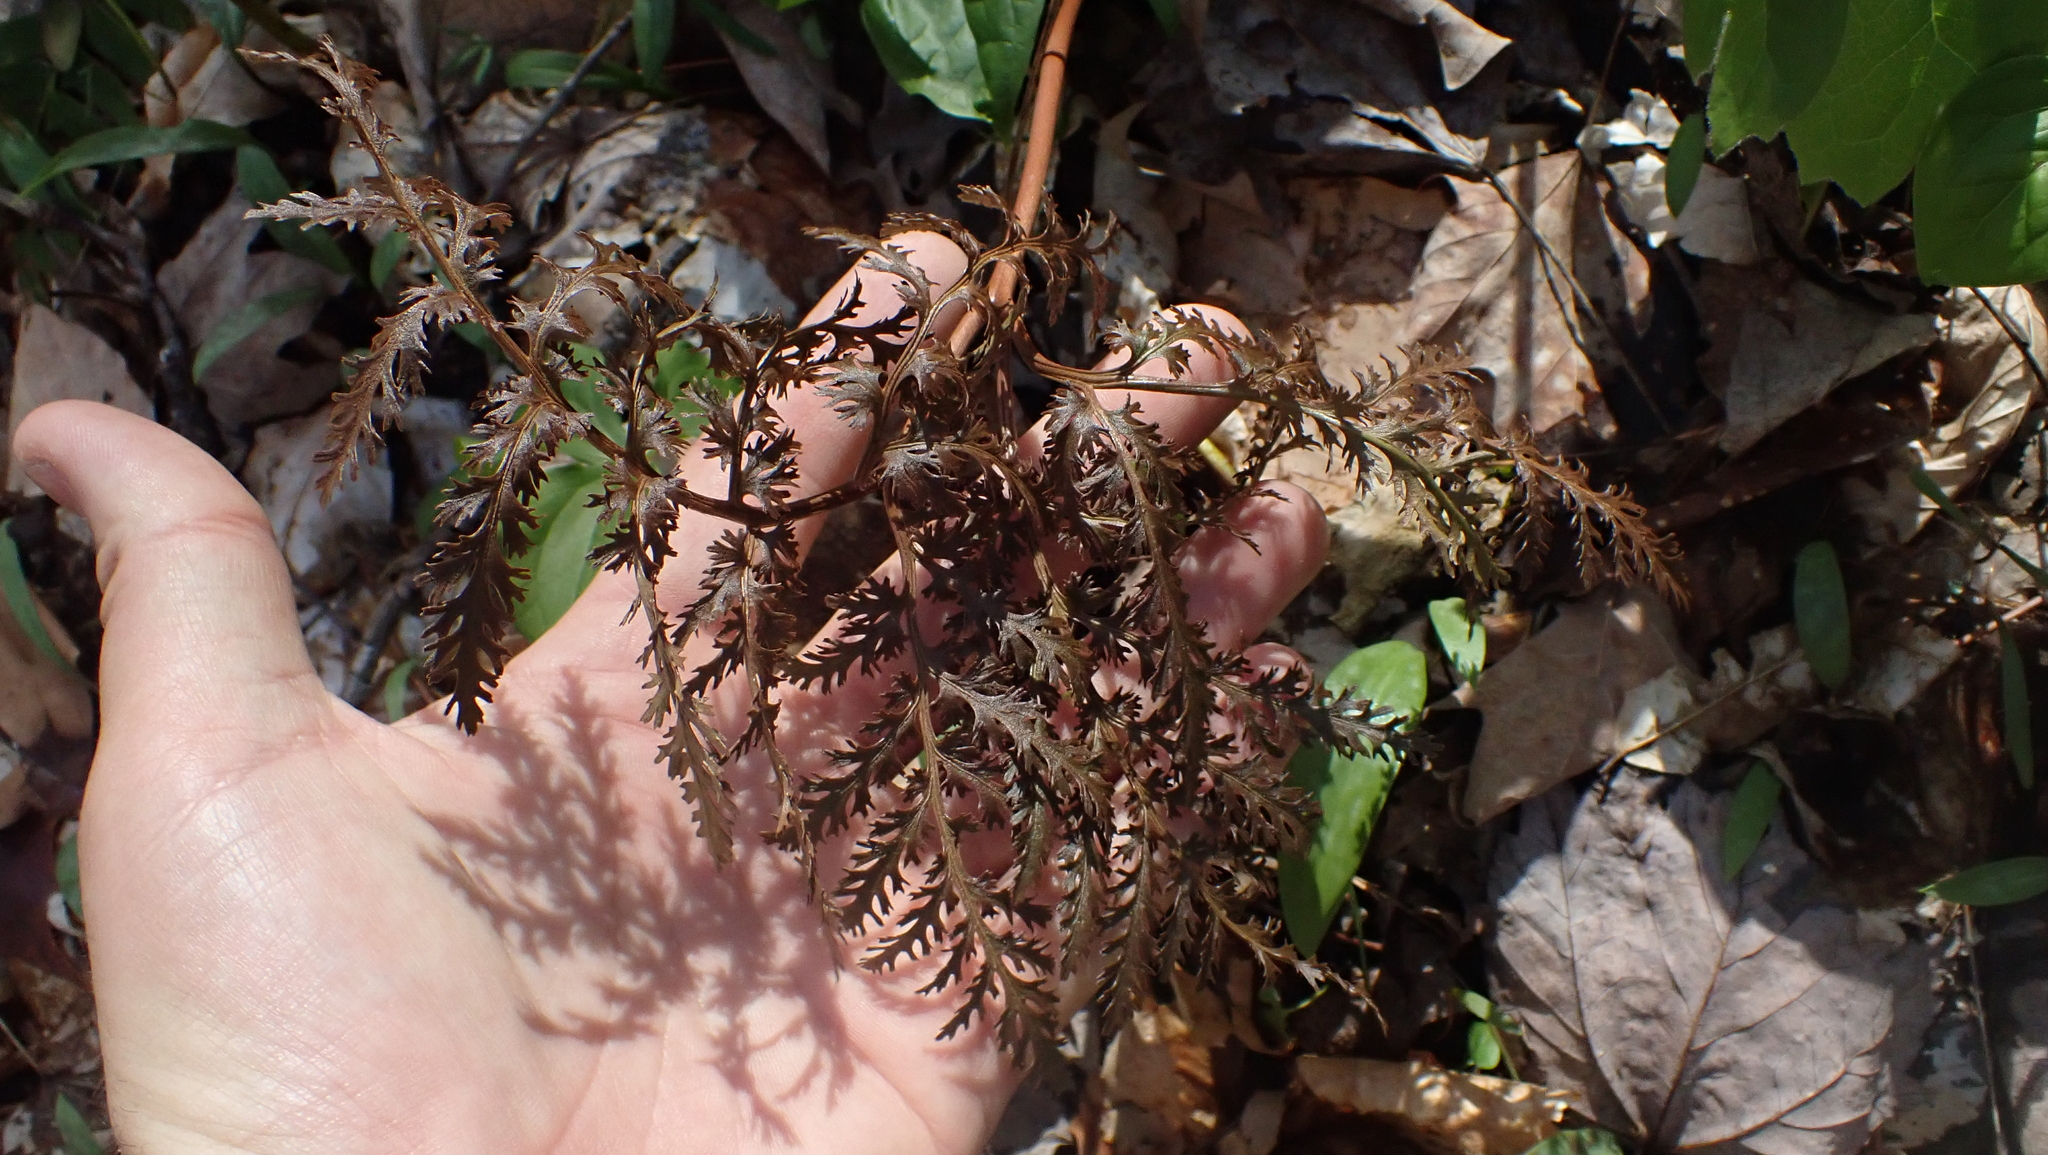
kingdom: Plantae
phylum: Tracheophyta
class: Polypodiopsida
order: Ophioglossales
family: Ophioglossaceae
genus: Sceptridium
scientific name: Sceptridium dissectum
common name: Cut-leaved grapefern
